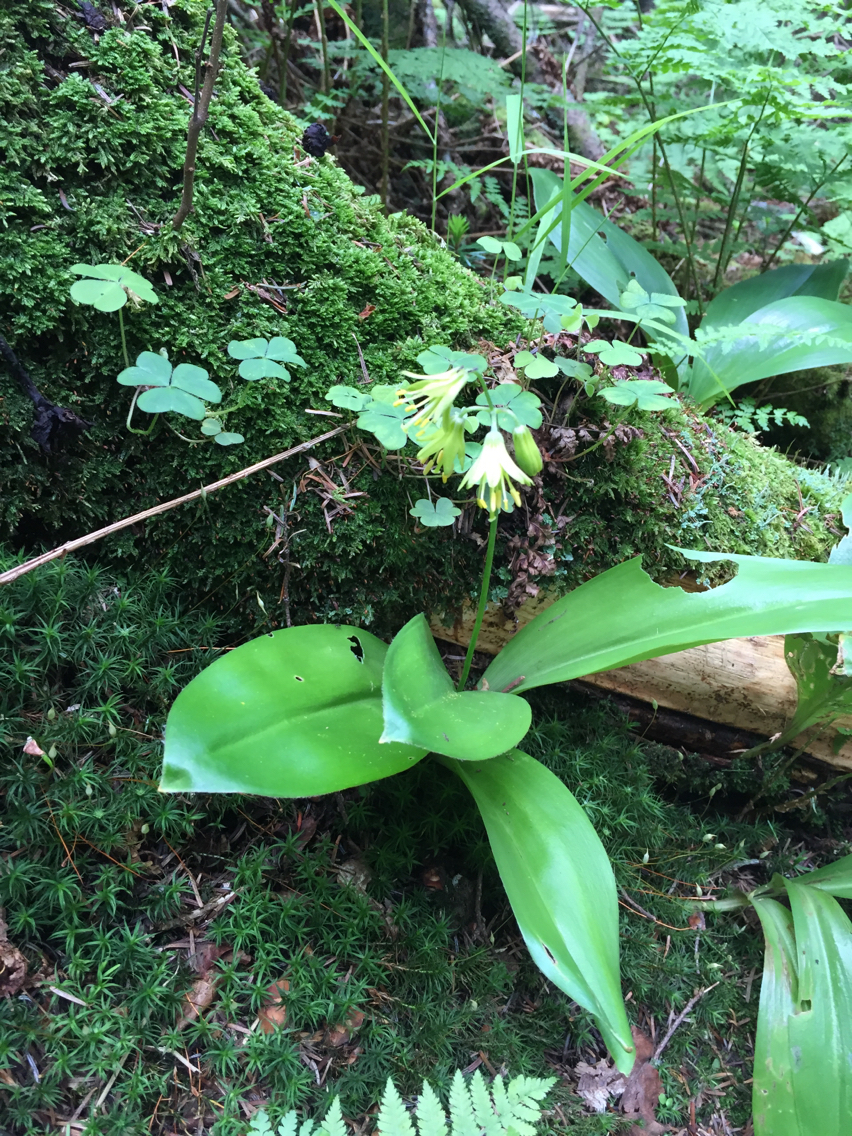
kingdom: Plantae
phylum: Tracheophyta
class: Liliopsida
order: Liliales
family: Liliaceae
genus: Clintonia
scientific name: Clintonia borealis
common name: Yellow clintonia
